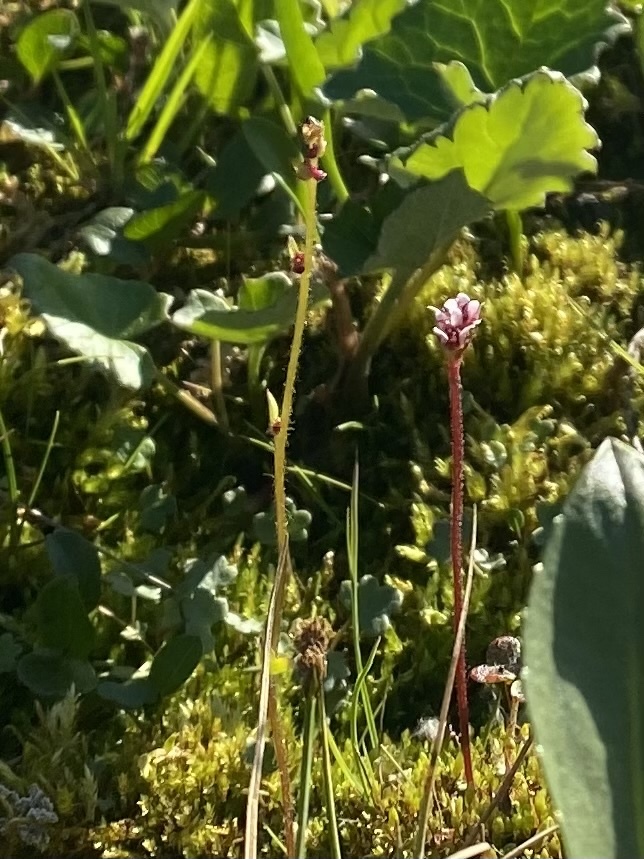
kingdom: Plantae
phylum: Tracheophyta
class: Magnoliopsida
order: Saxifragales
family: Saxifragaceae
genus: Micranthes
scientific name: Micranthes nivalis
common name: Alpine saxifrage
